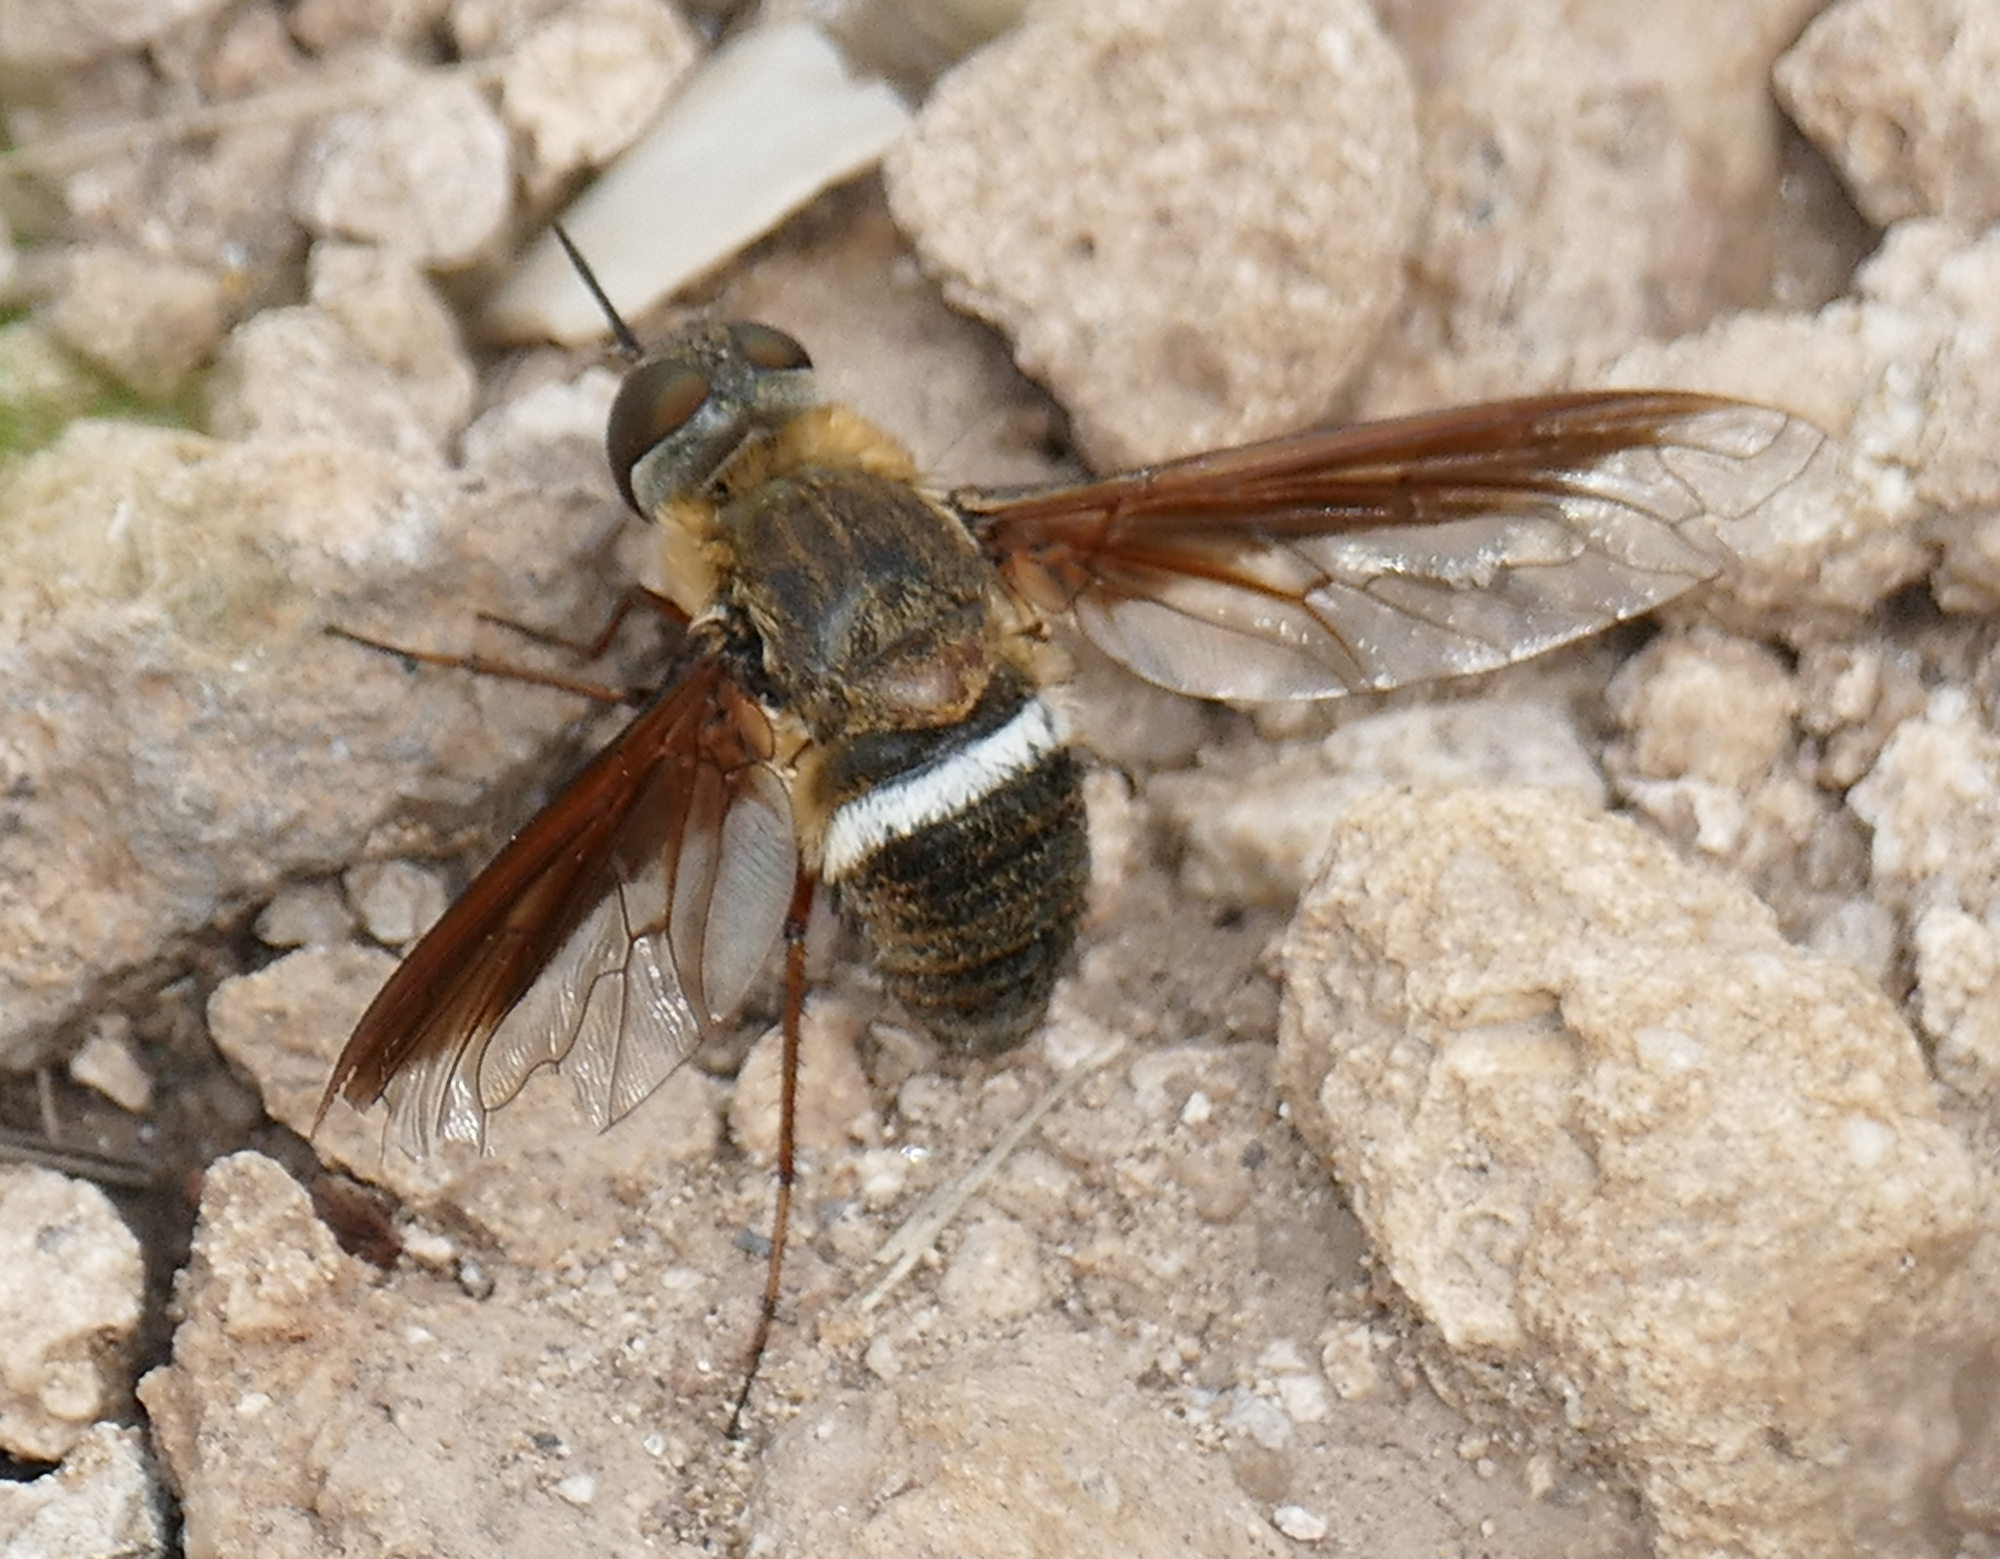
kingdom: Animalia
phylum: Arthropoda
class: Insecta
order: Diptera
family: Bombyliidae
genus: Exoprosopa
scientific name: Exoprosopa rostrifera
